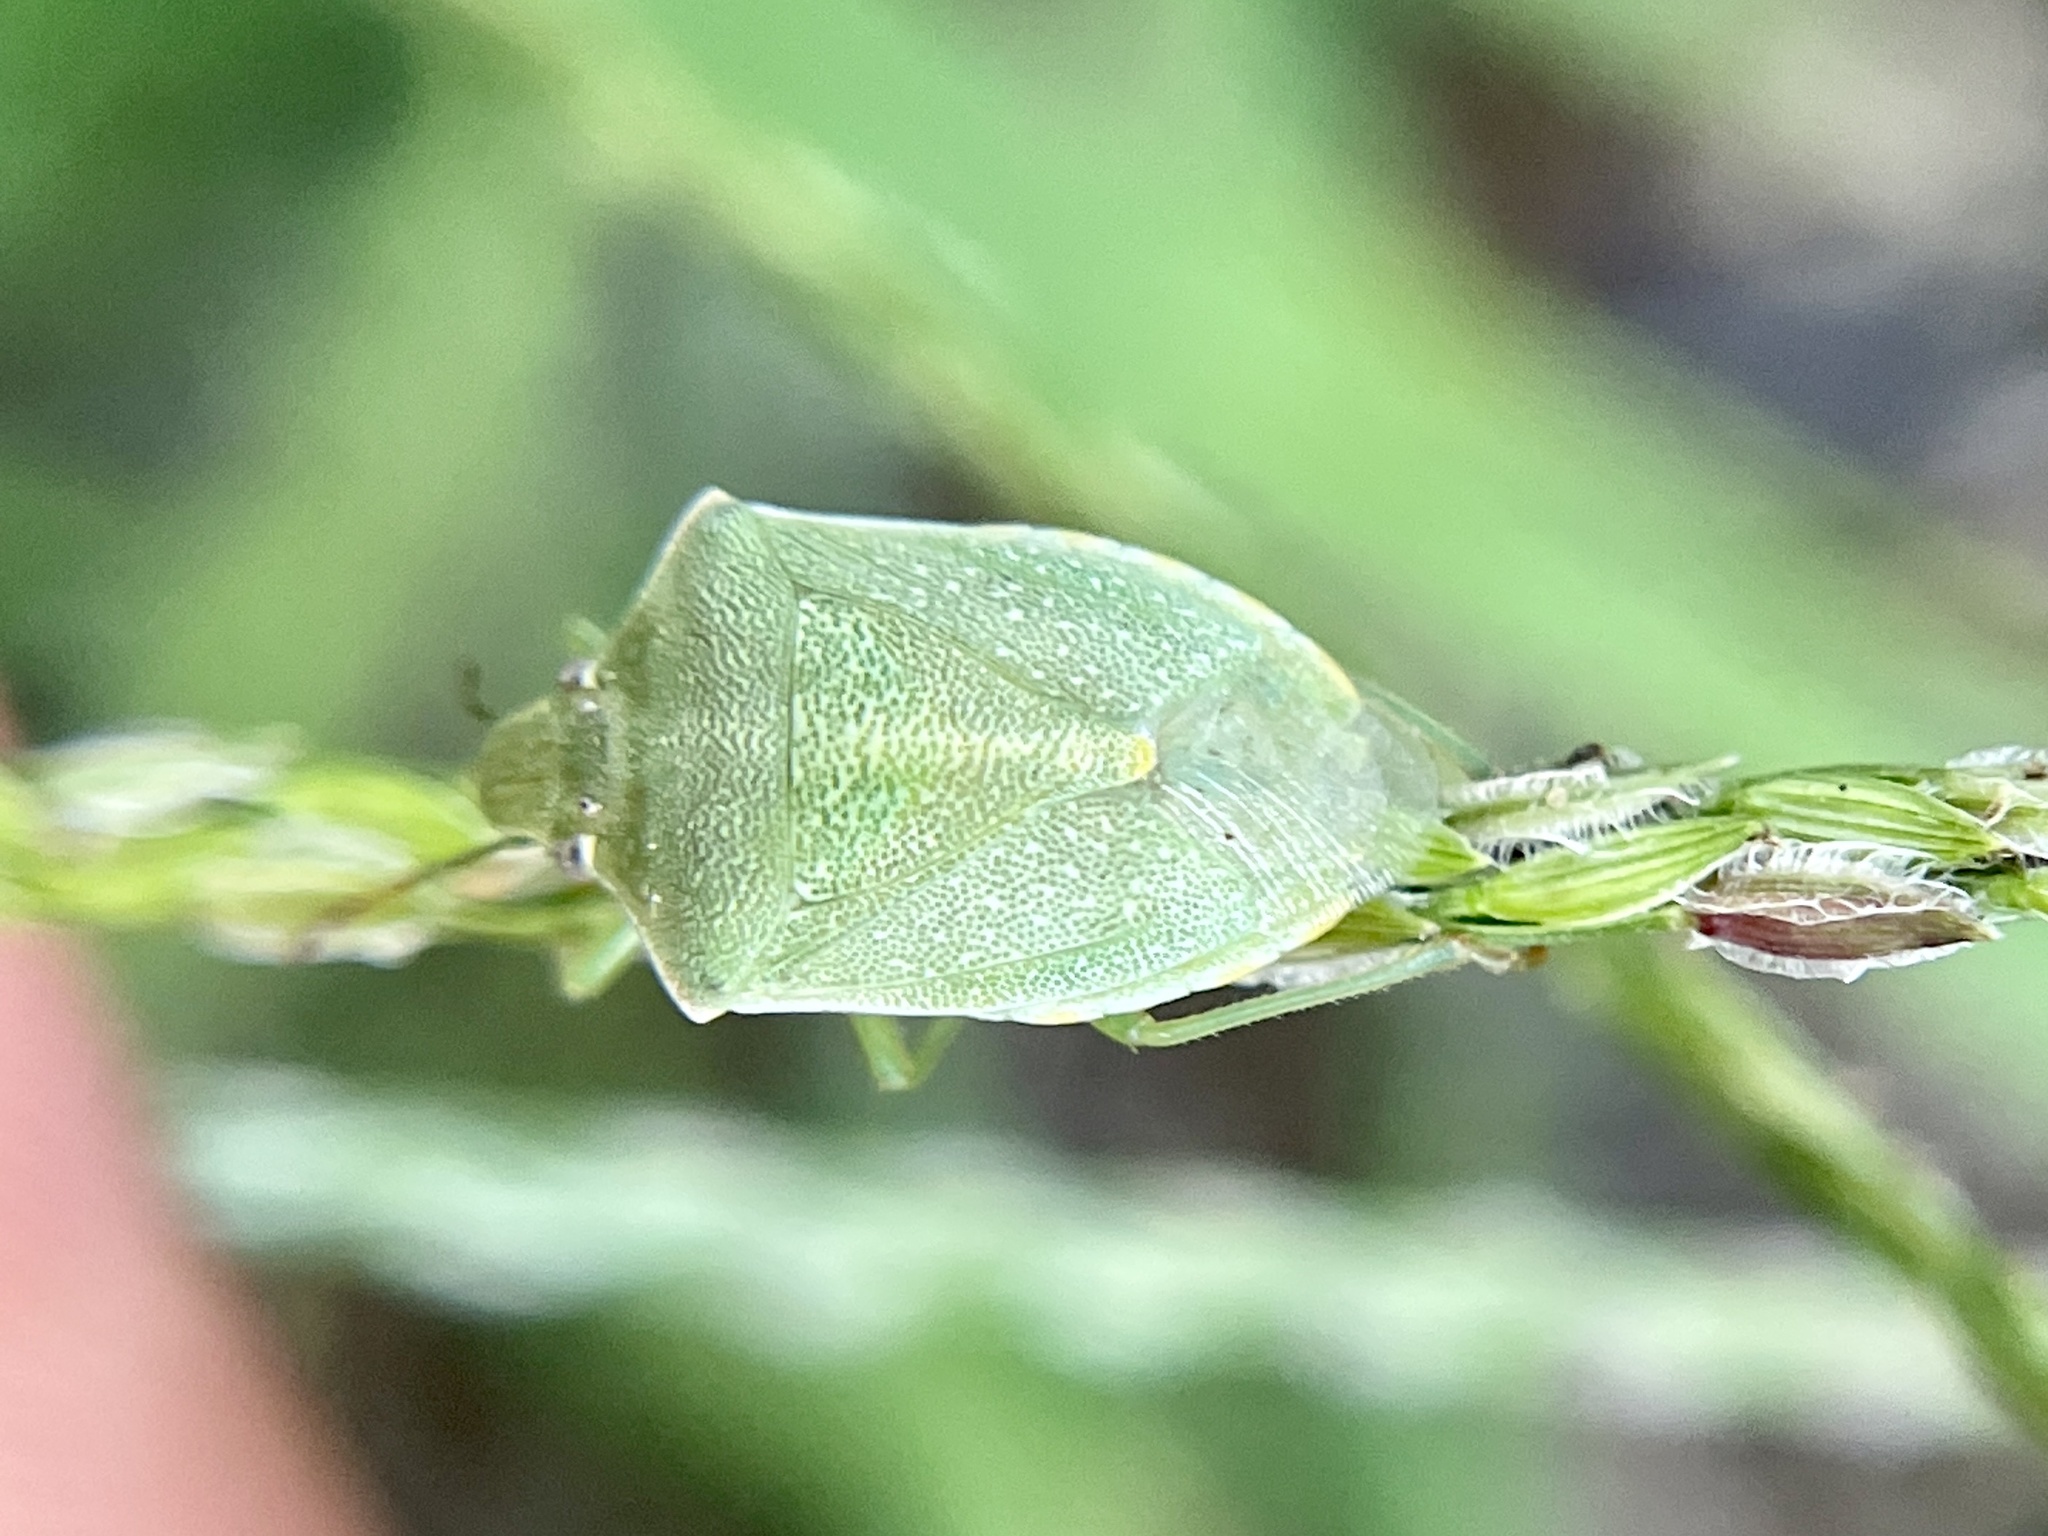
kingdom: Animalia
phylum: Arthropoda
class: Insecta
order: Hemiptera
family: Pentatomidae
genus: Thyanta
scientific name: Thyanta accerra
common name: Stink bug
